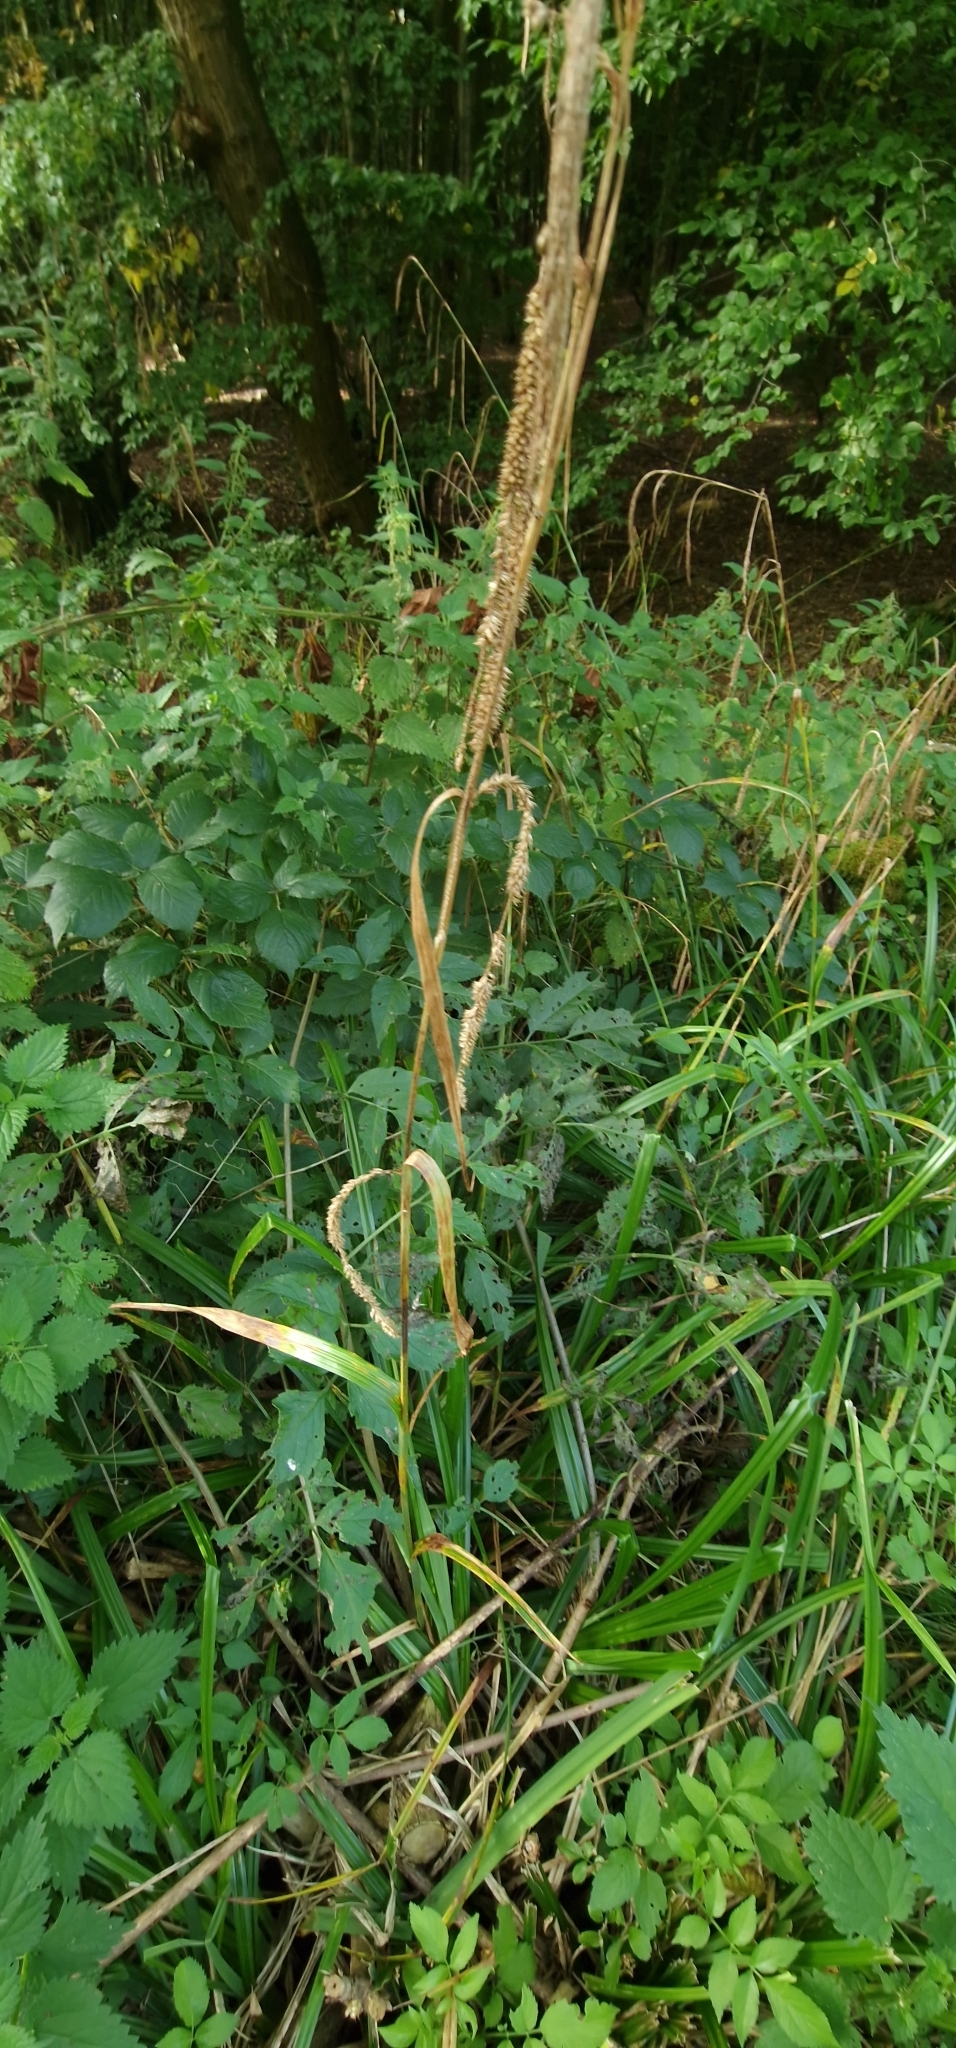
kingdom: Plantae
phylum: Tracheophyta
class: Liliopsida
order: Poales
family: Cyperaceae
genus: Carex
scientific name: Carex pendula
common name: Pendulous sedge
